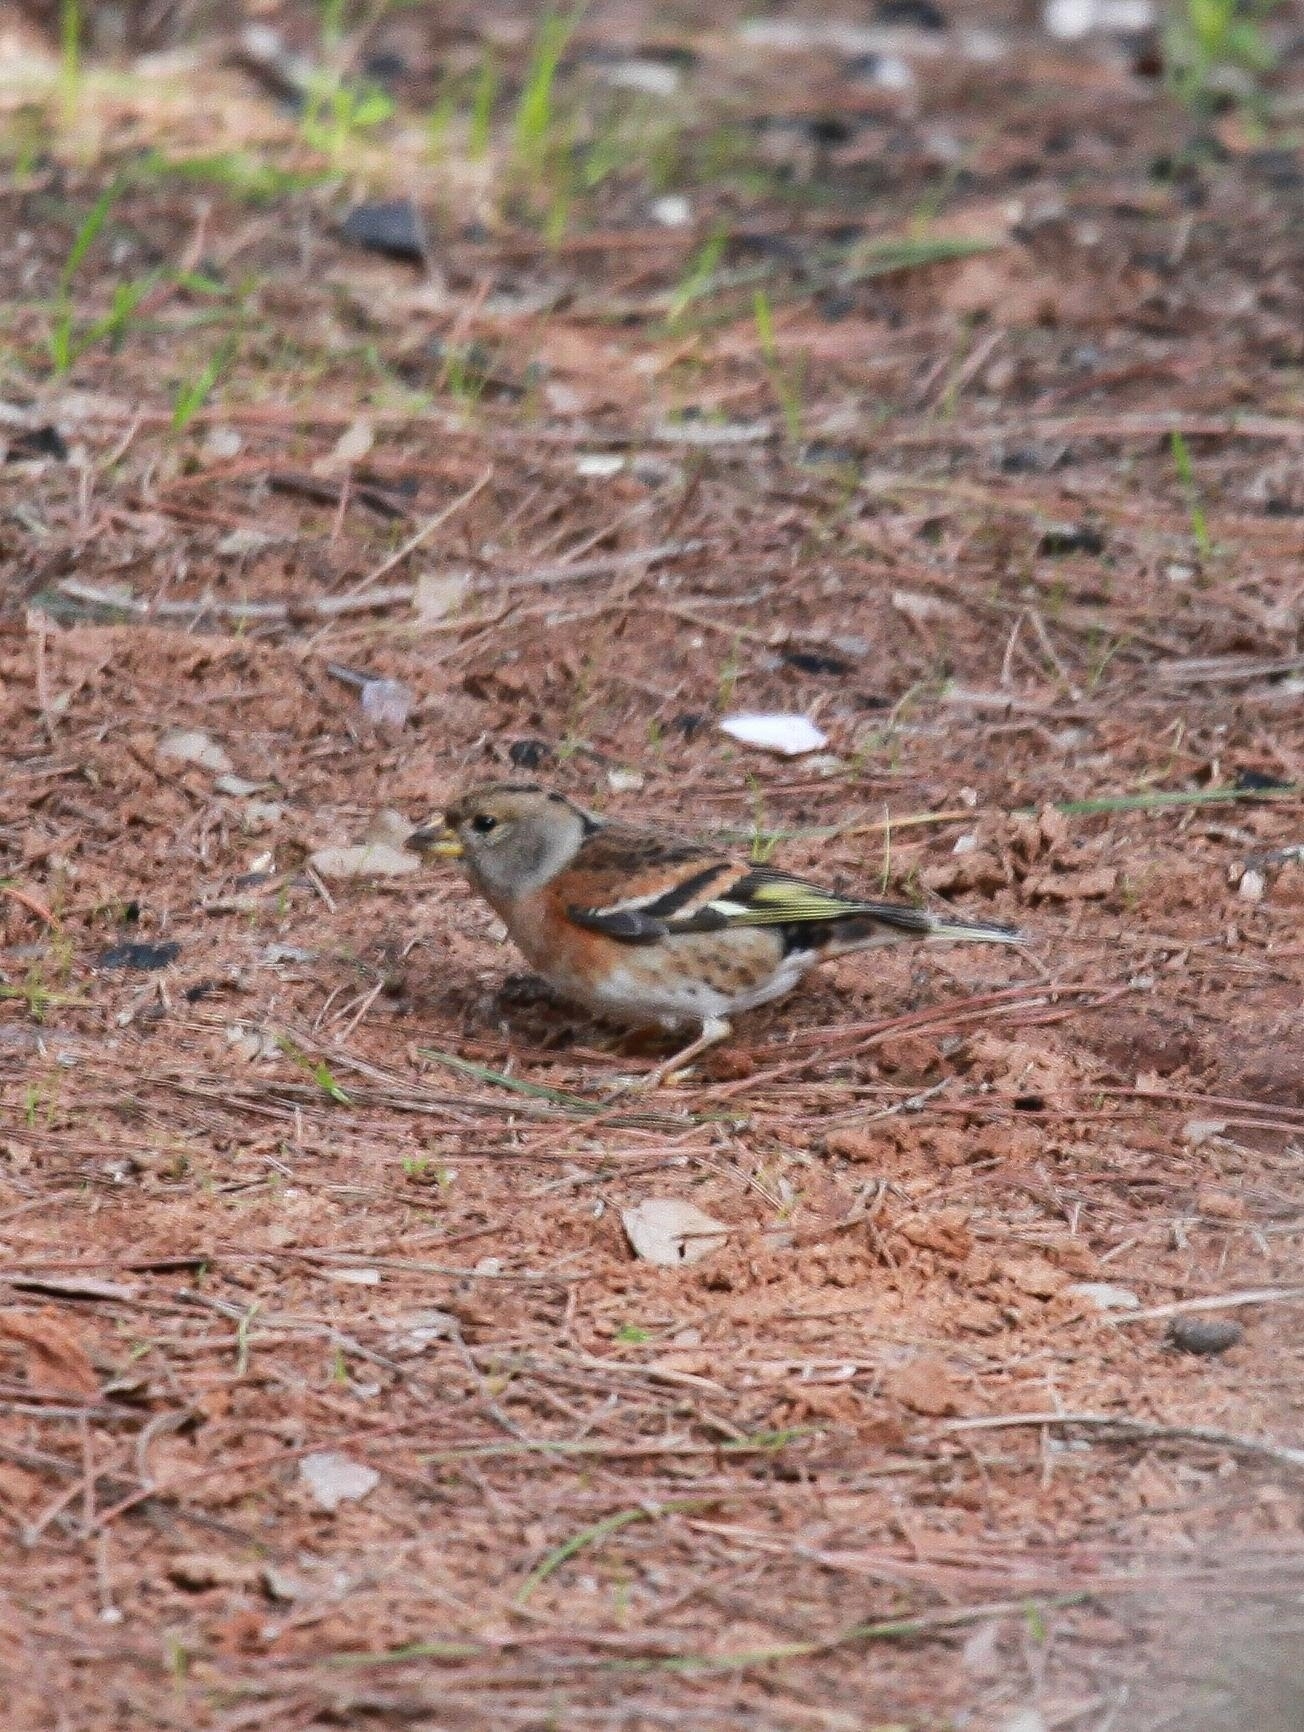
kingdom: Animalia
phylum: Chordata
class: Aves
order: Passeriformes
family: Fringillidae
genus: Fringilla
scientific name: Fringilla montifringilla
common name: Brambling
